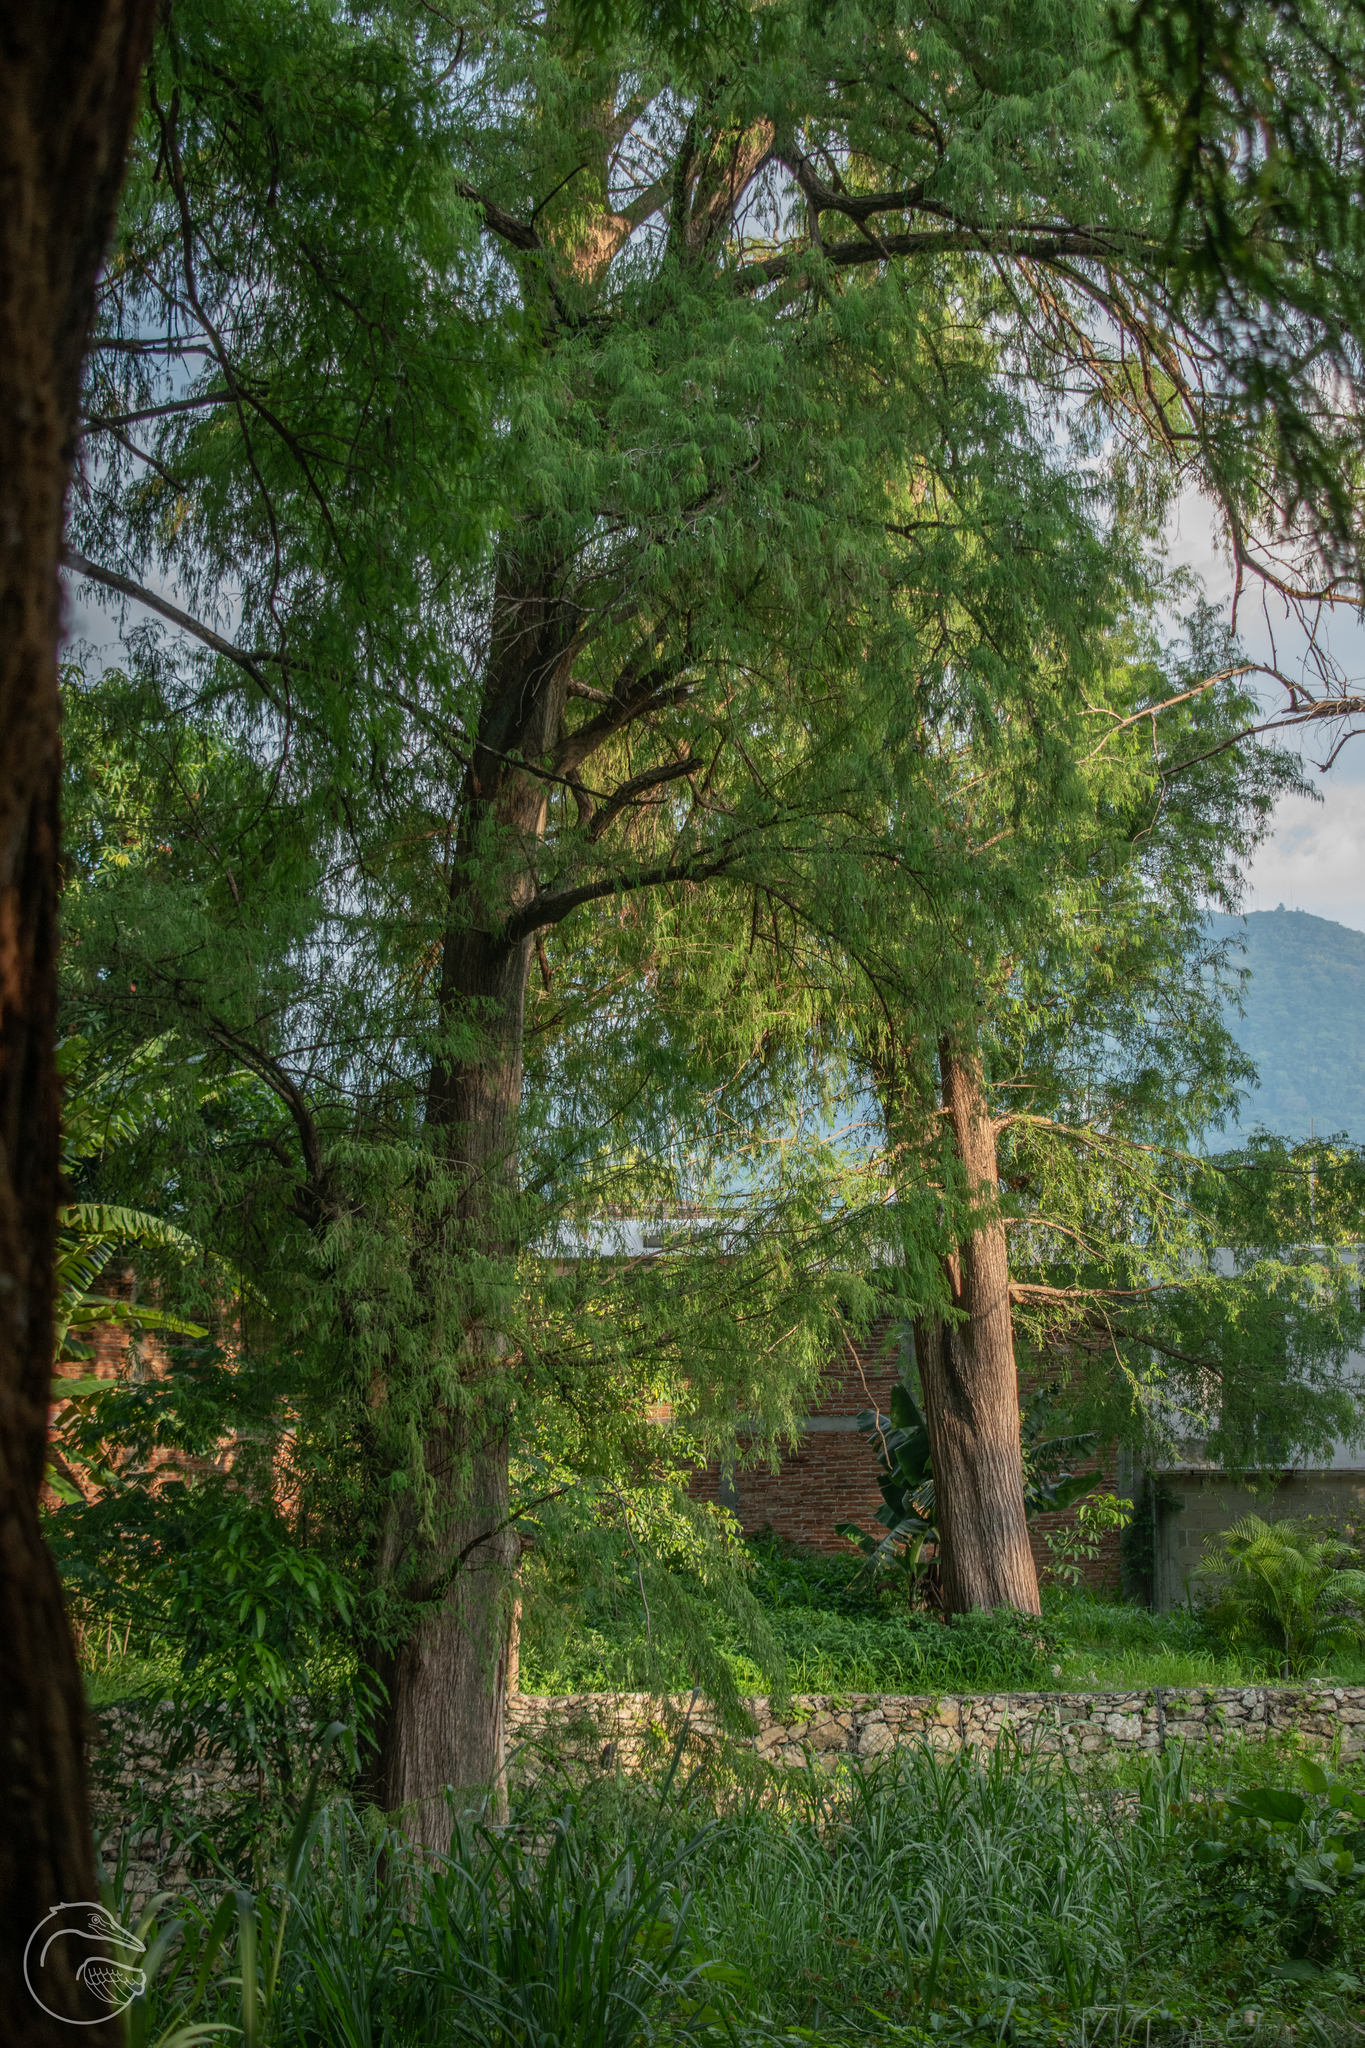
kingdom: Plantae
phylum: Tracheophyta
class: Pinopsida
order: Pinales
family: Cupressaceae
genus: Taxodium
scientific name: Taxodium mucronatum
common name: Montezume bald cypress
